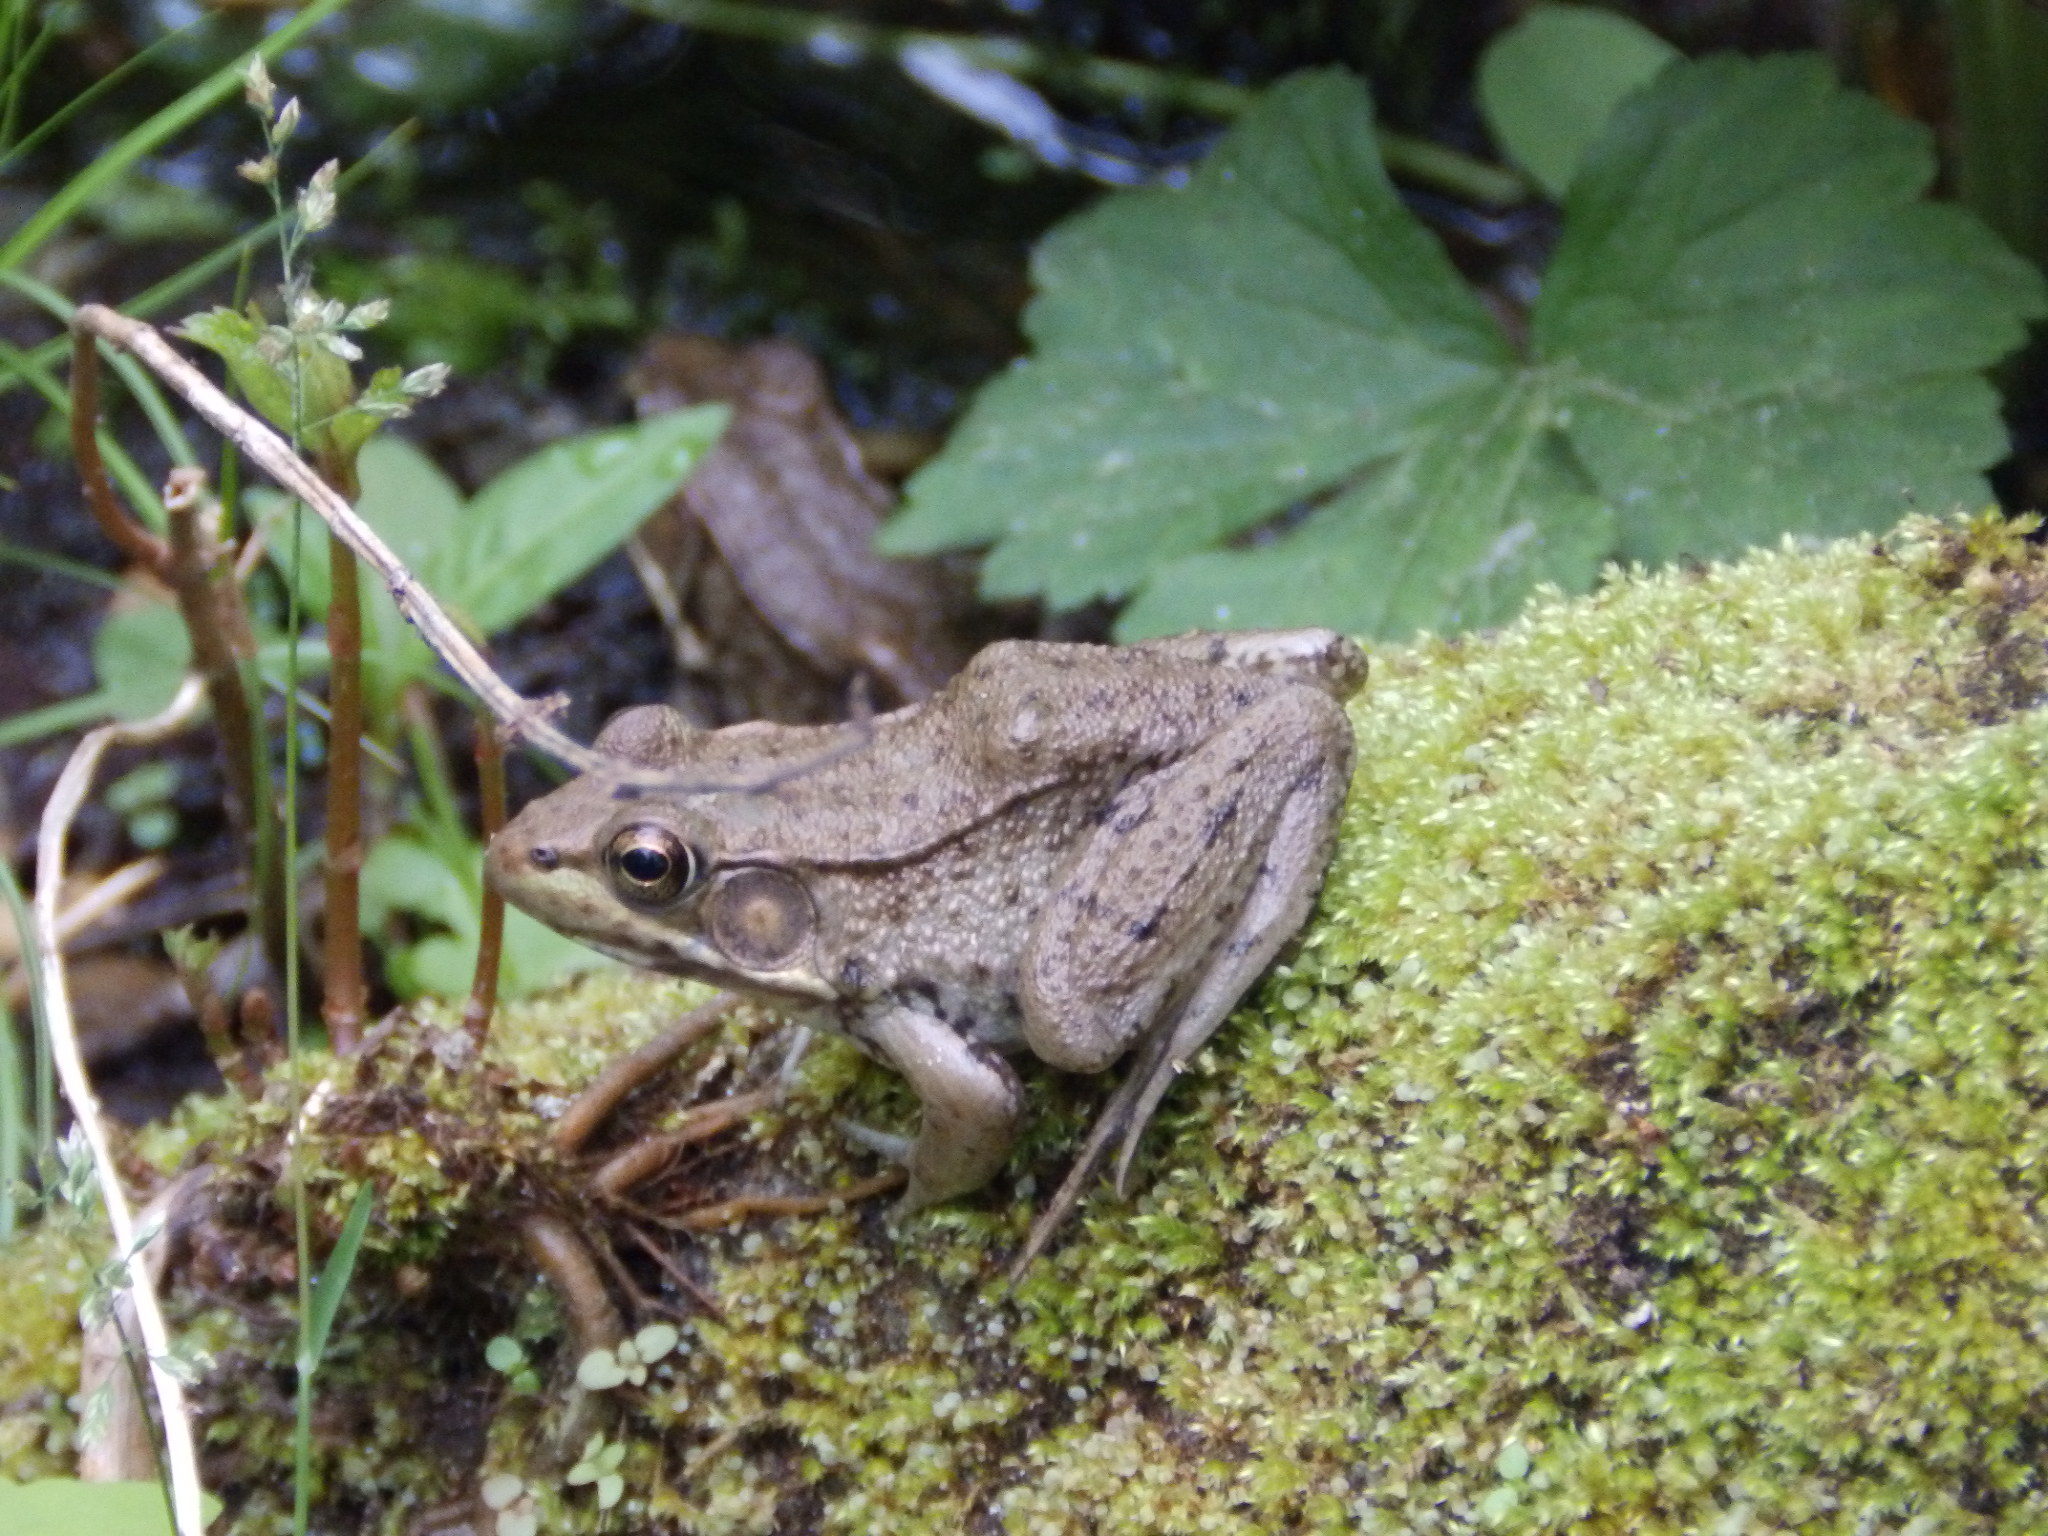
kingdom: Animalia
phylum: Chordata
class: Amphibia
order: Anura
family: Ranidae
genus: Lithobates
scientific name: Lithobates clamitans
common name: Green frog
